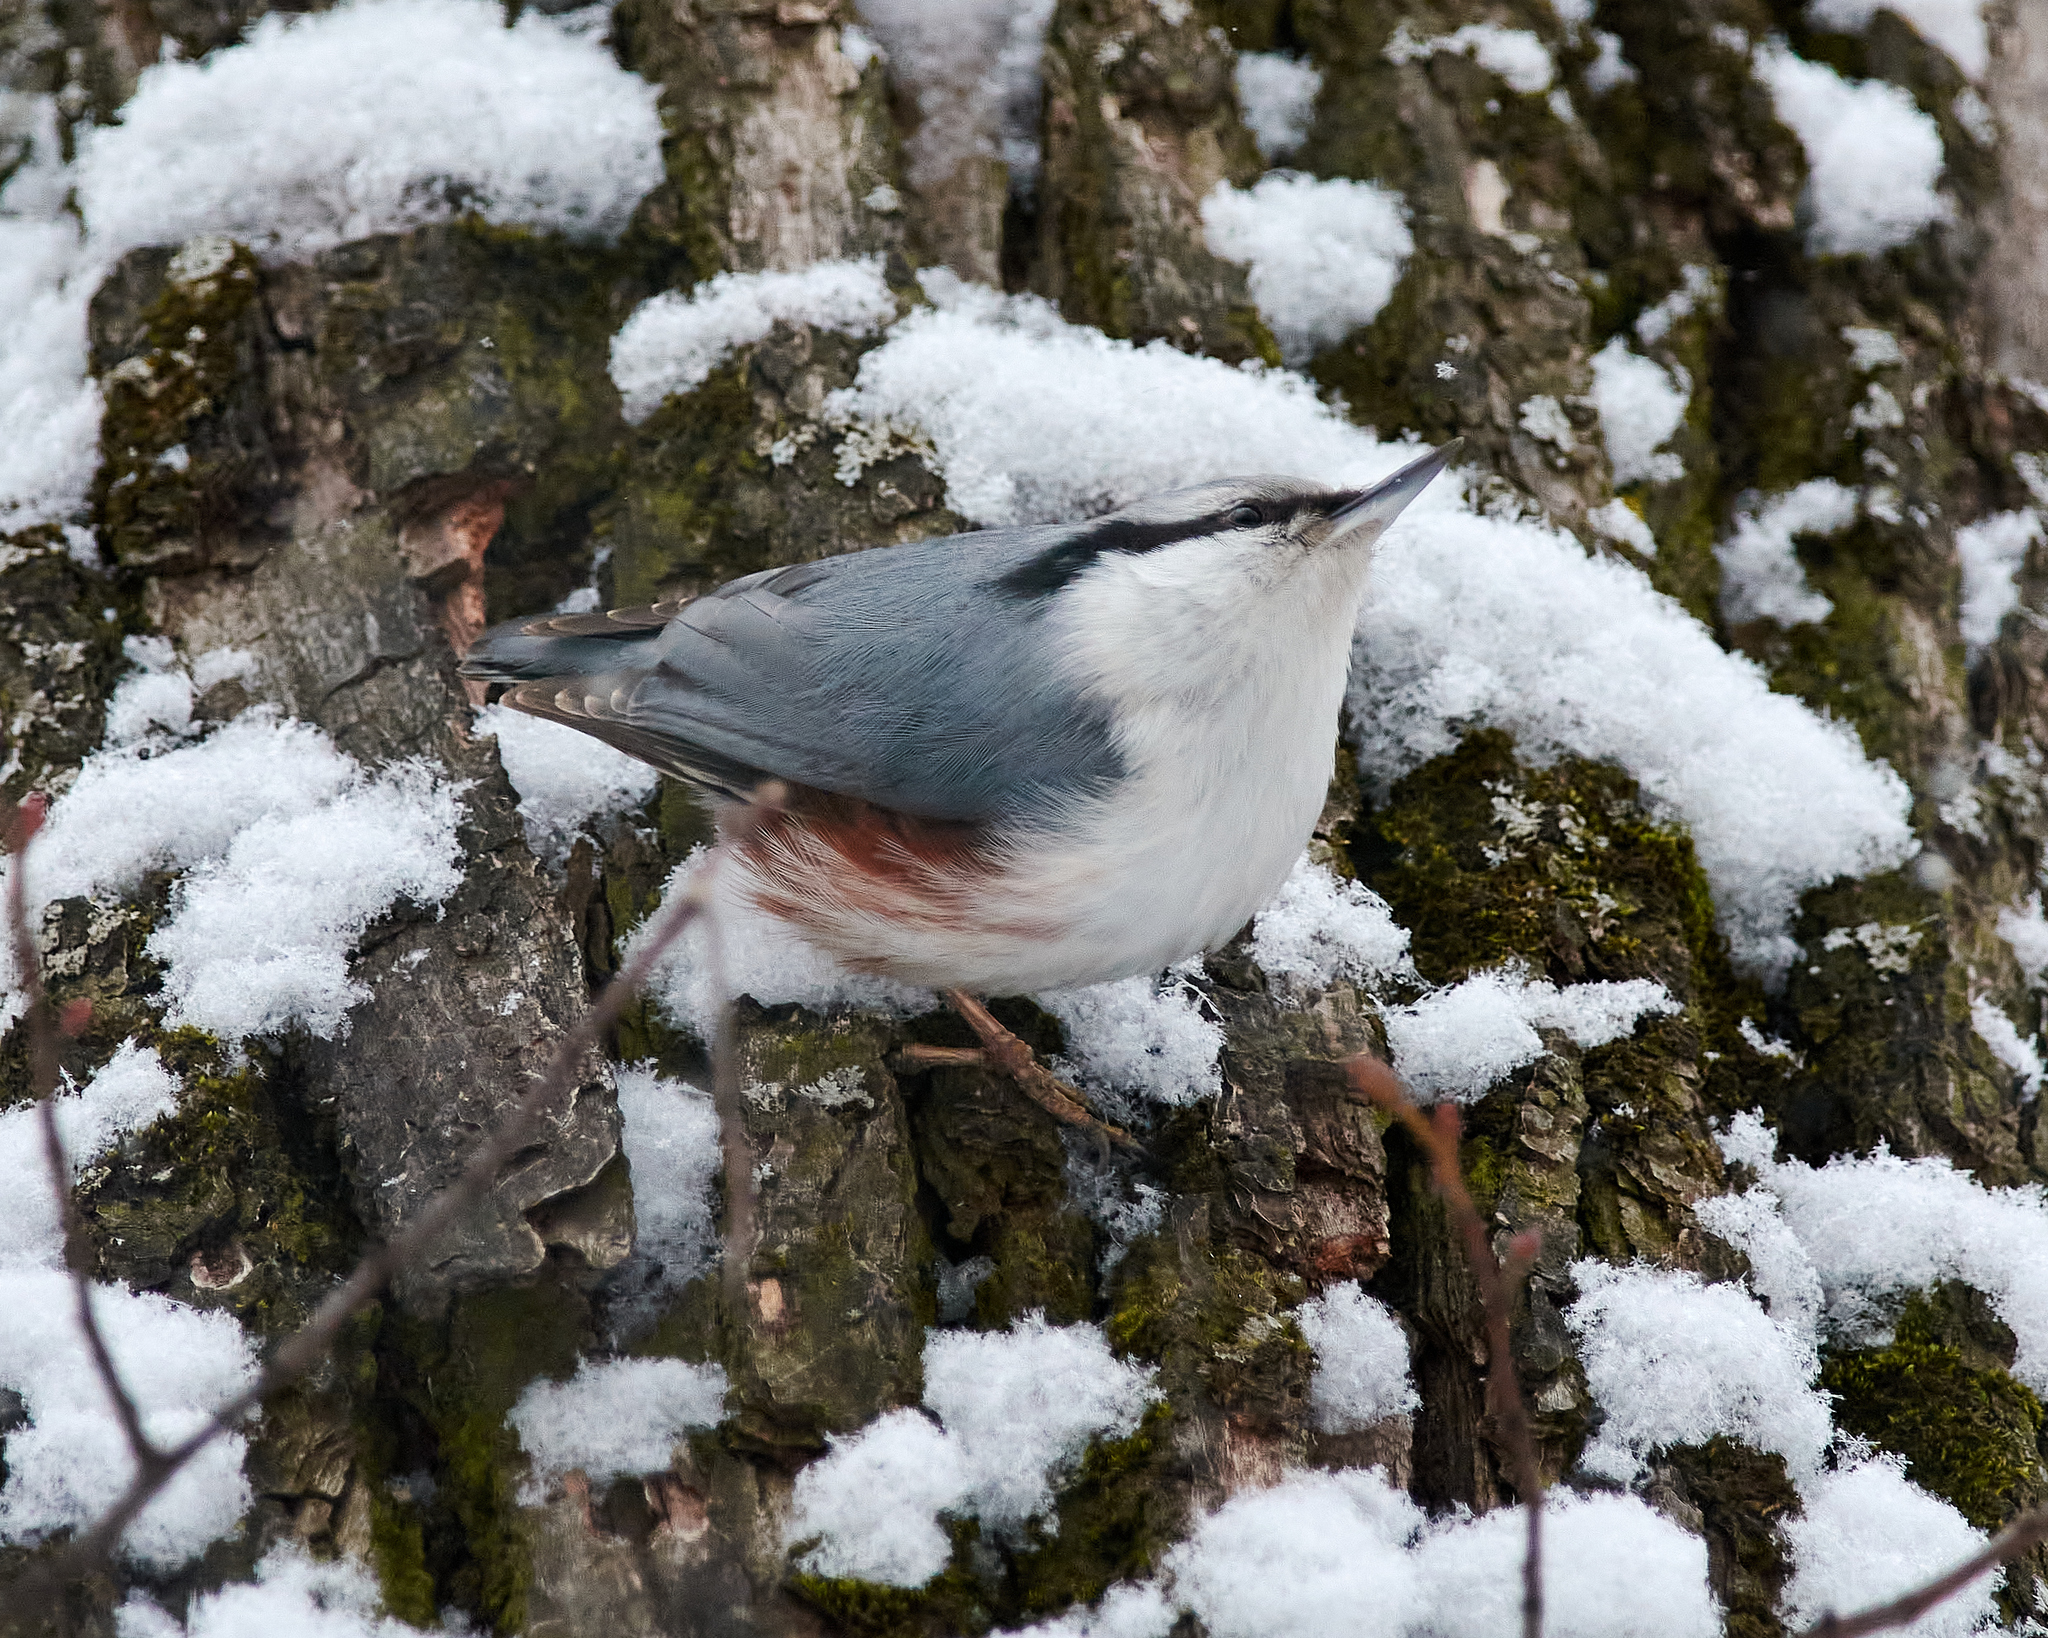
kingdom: Animalia
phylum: Chordata
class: Aves
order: Passeriformes
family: Sittidae
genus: Sitta
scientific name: Sitta europaea
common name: Eurasian nuthatch
